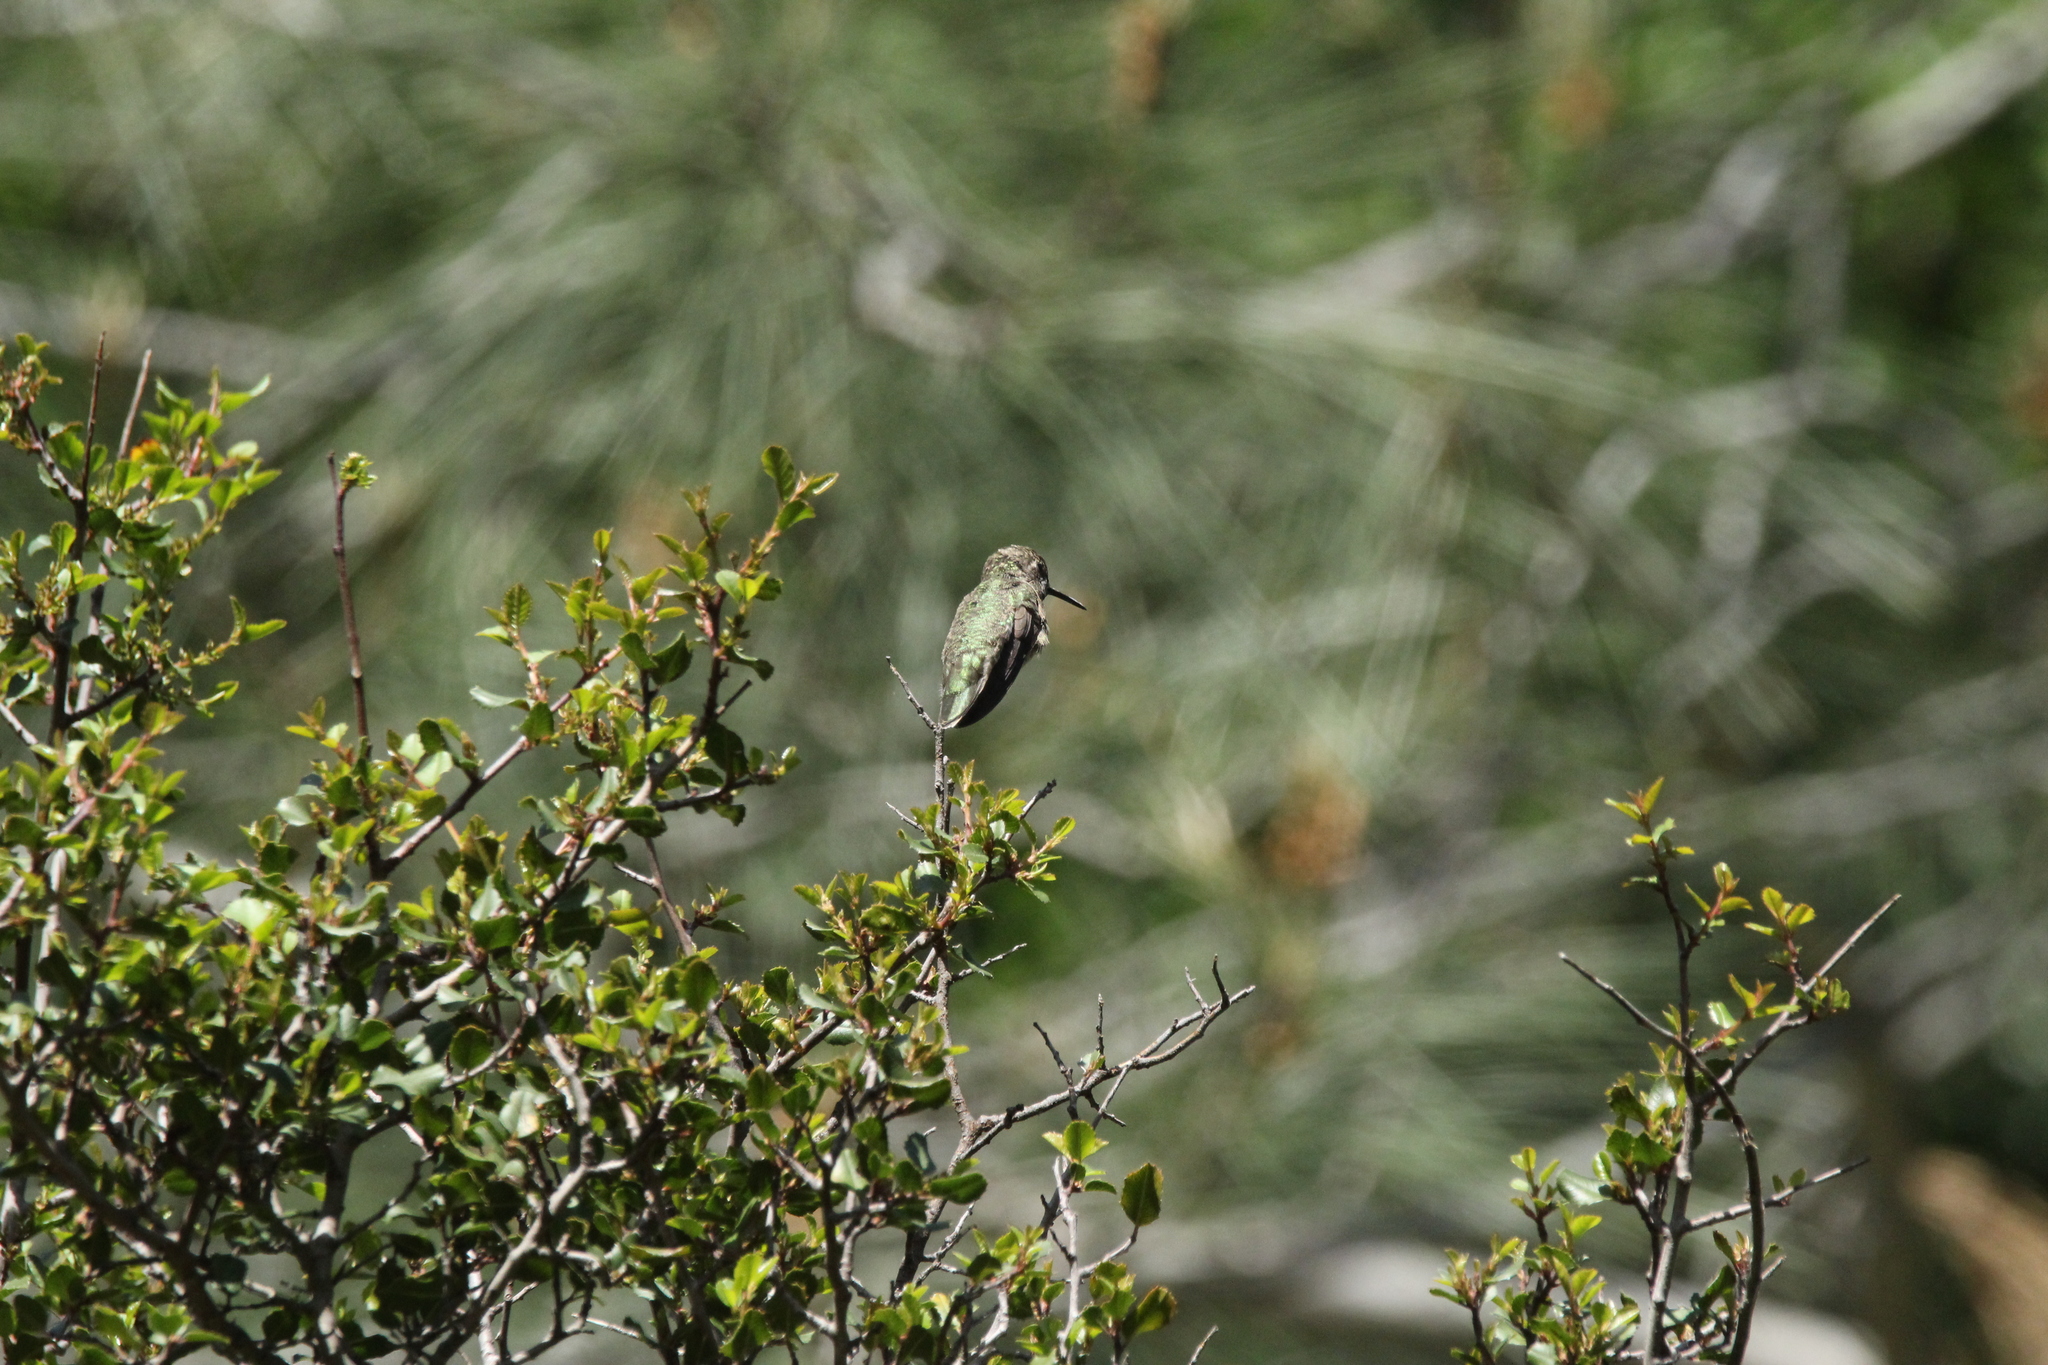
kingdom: Animalia
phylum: Chordata
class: Aves
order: Apodiformes
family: Trochilidae
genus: Calypte
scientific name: Calypte anna
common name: Anna's hummingbird
